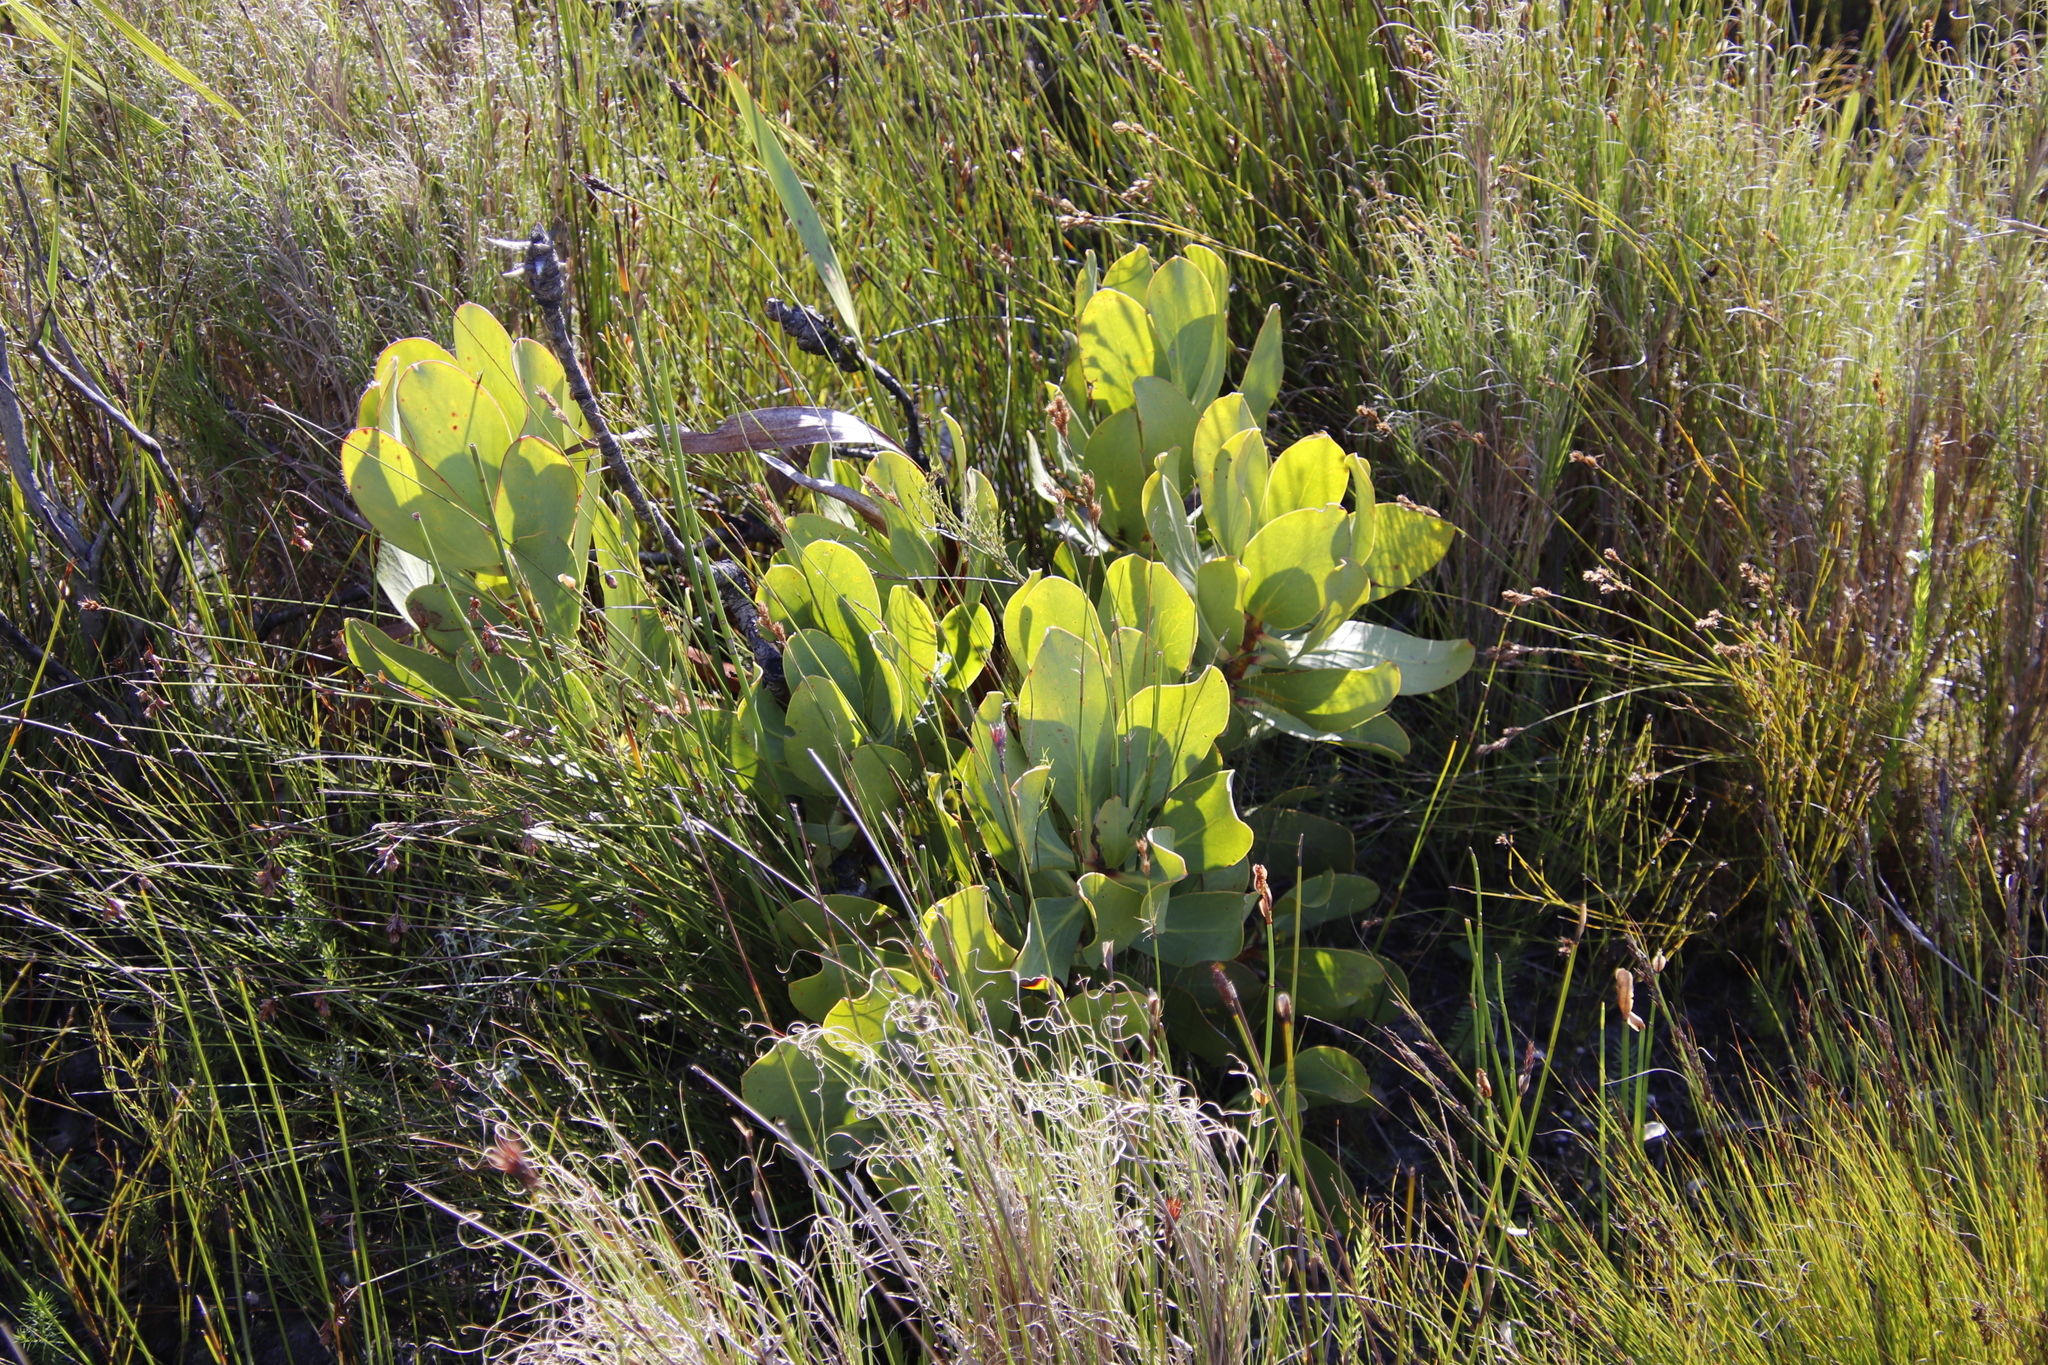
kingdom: Plantae
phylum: Tracheophyta
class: Magnoliopsida
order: Proteales
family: Proteaceae
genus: Protea
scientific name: Protea speciosa
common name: Brown-beard sugarbush
